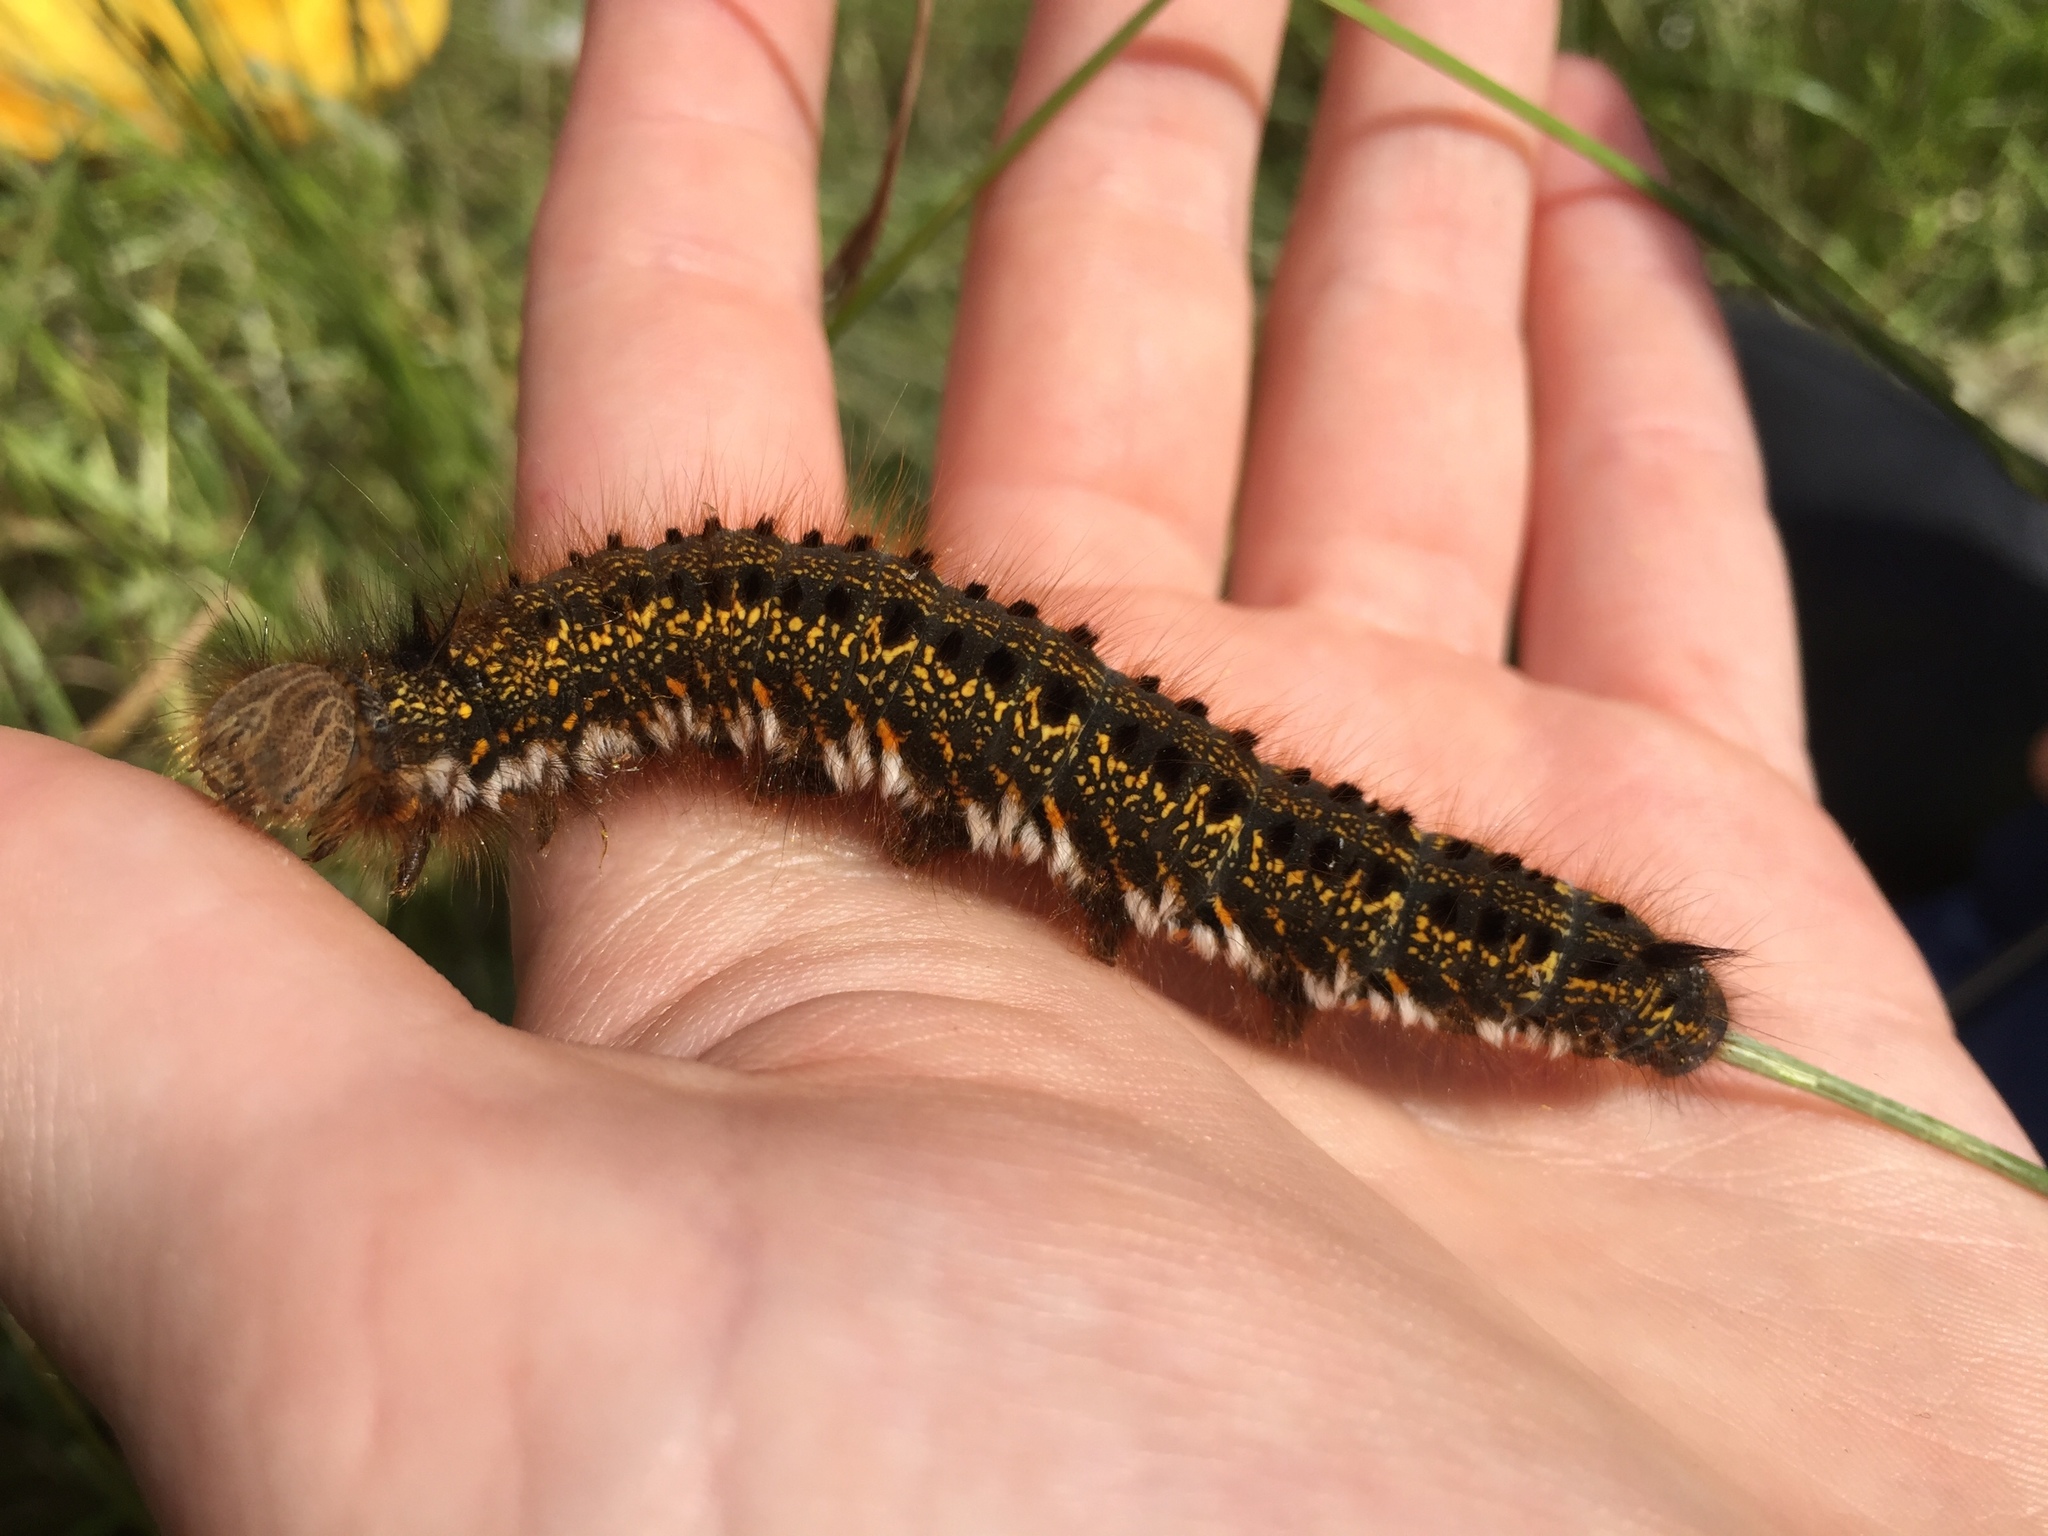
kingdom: Animalia
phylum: Arthropoda
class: Insecta
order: Lepidoptera
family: Lasiocampidae
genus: Euthrix
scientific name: Euthrix potatoria
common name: Drinker
